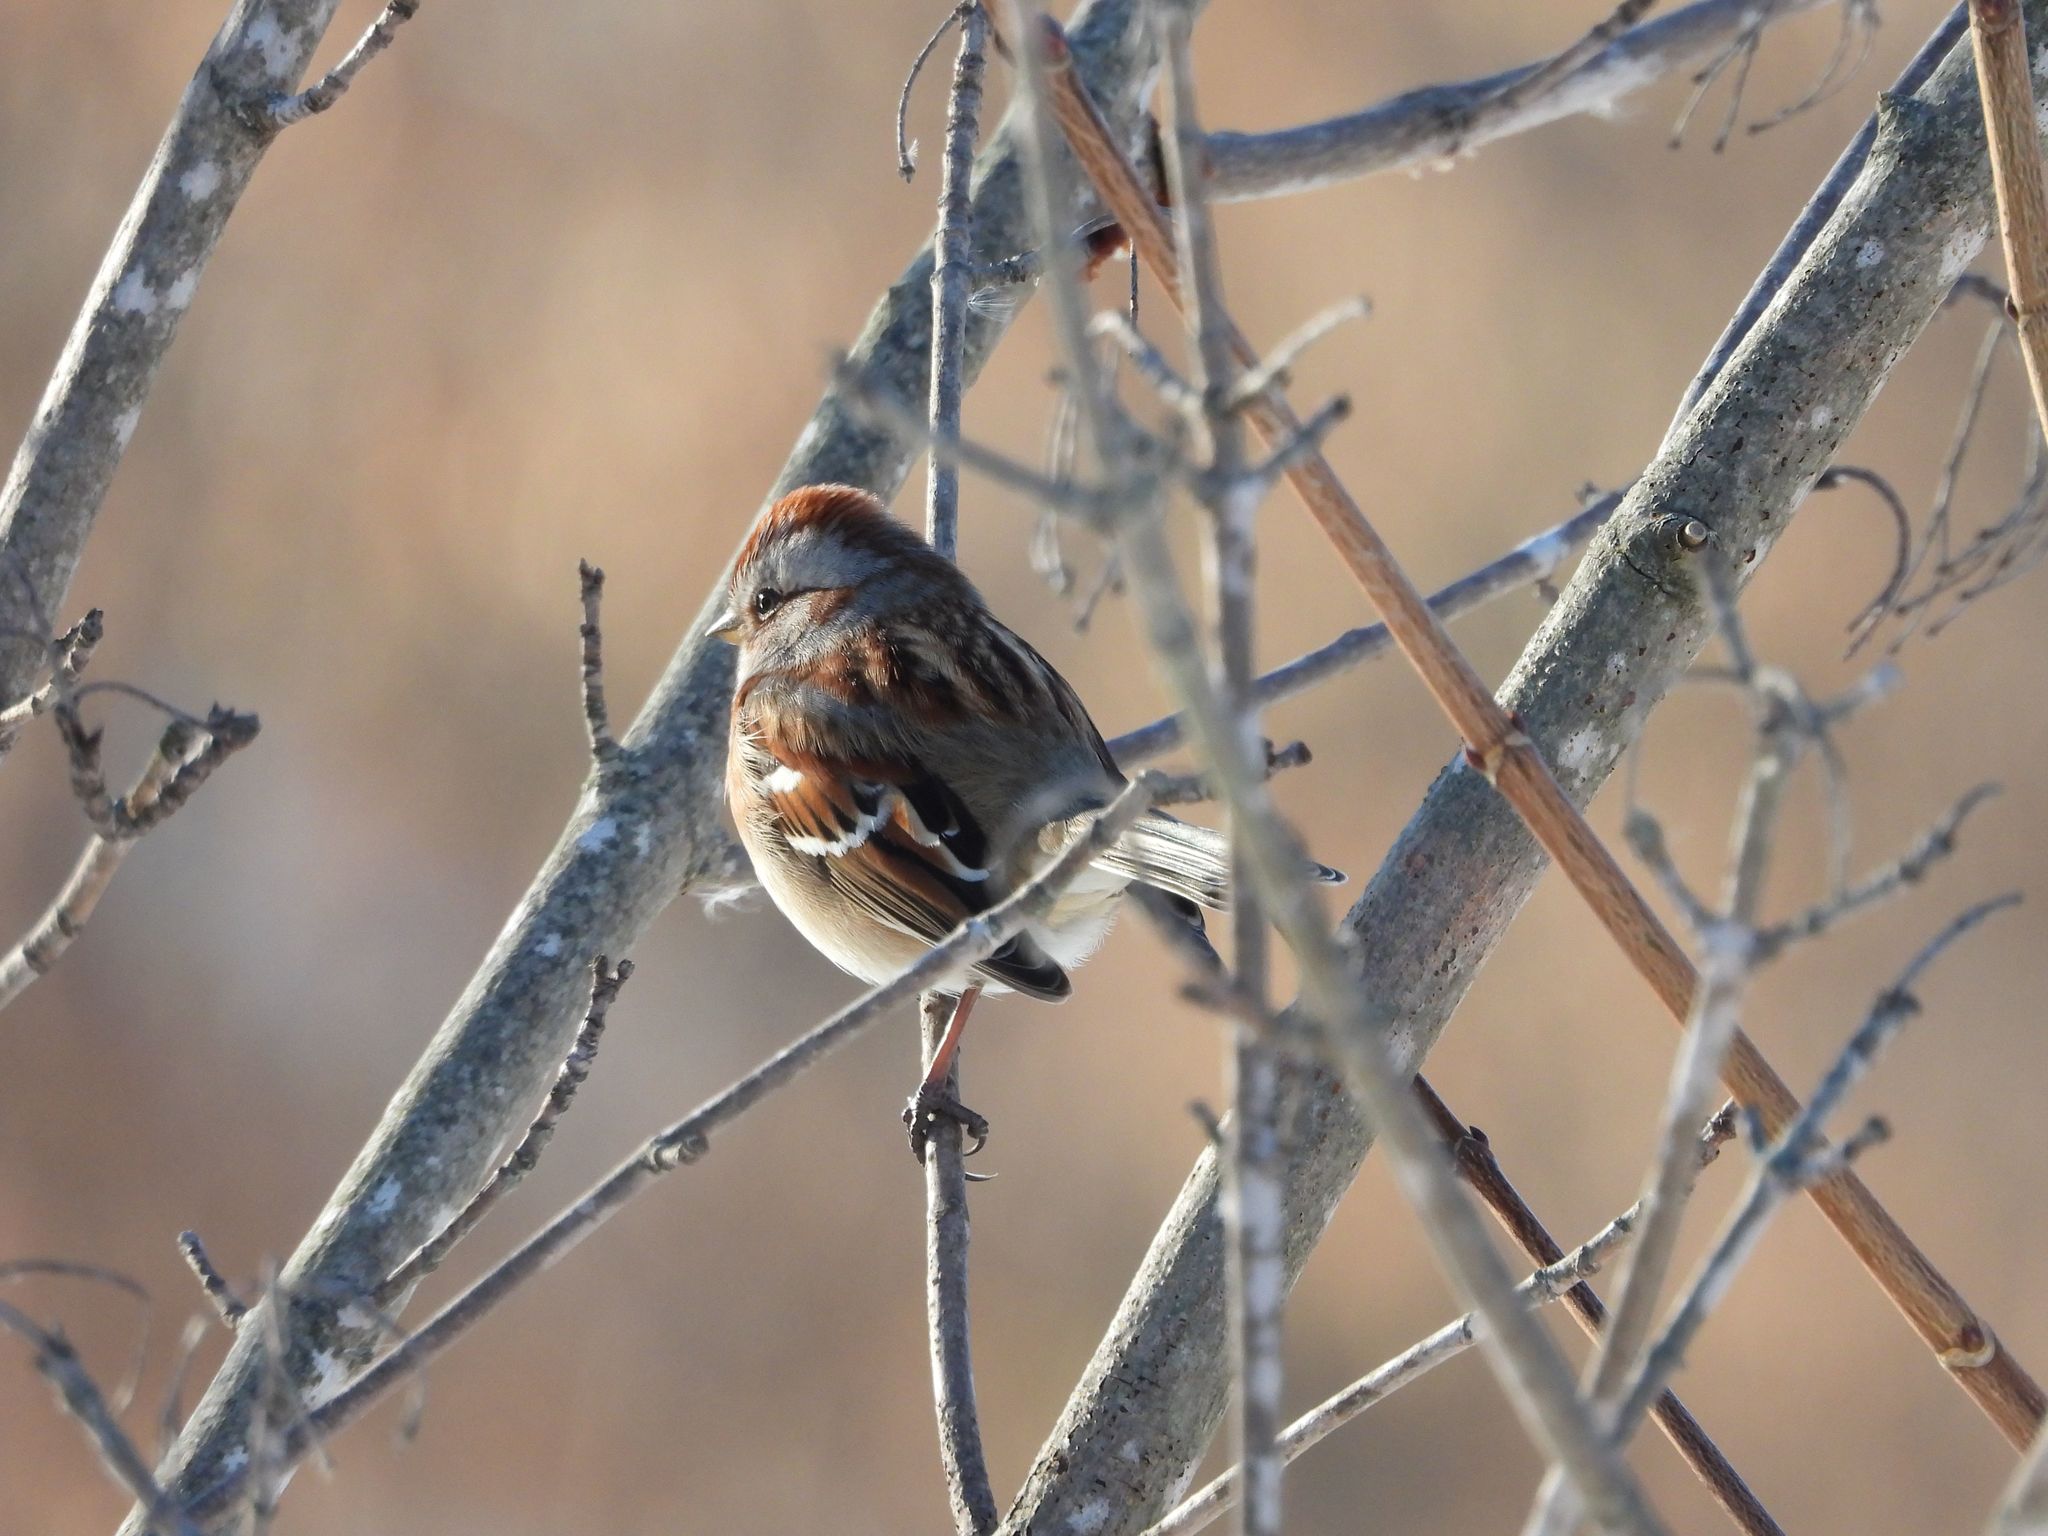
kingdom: Animalia
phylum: Chordata
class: Aves
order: Passeriformes
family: Passerellidae
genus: Spizelloides
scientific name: Spizelloides arborea
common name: American tree sparrow
